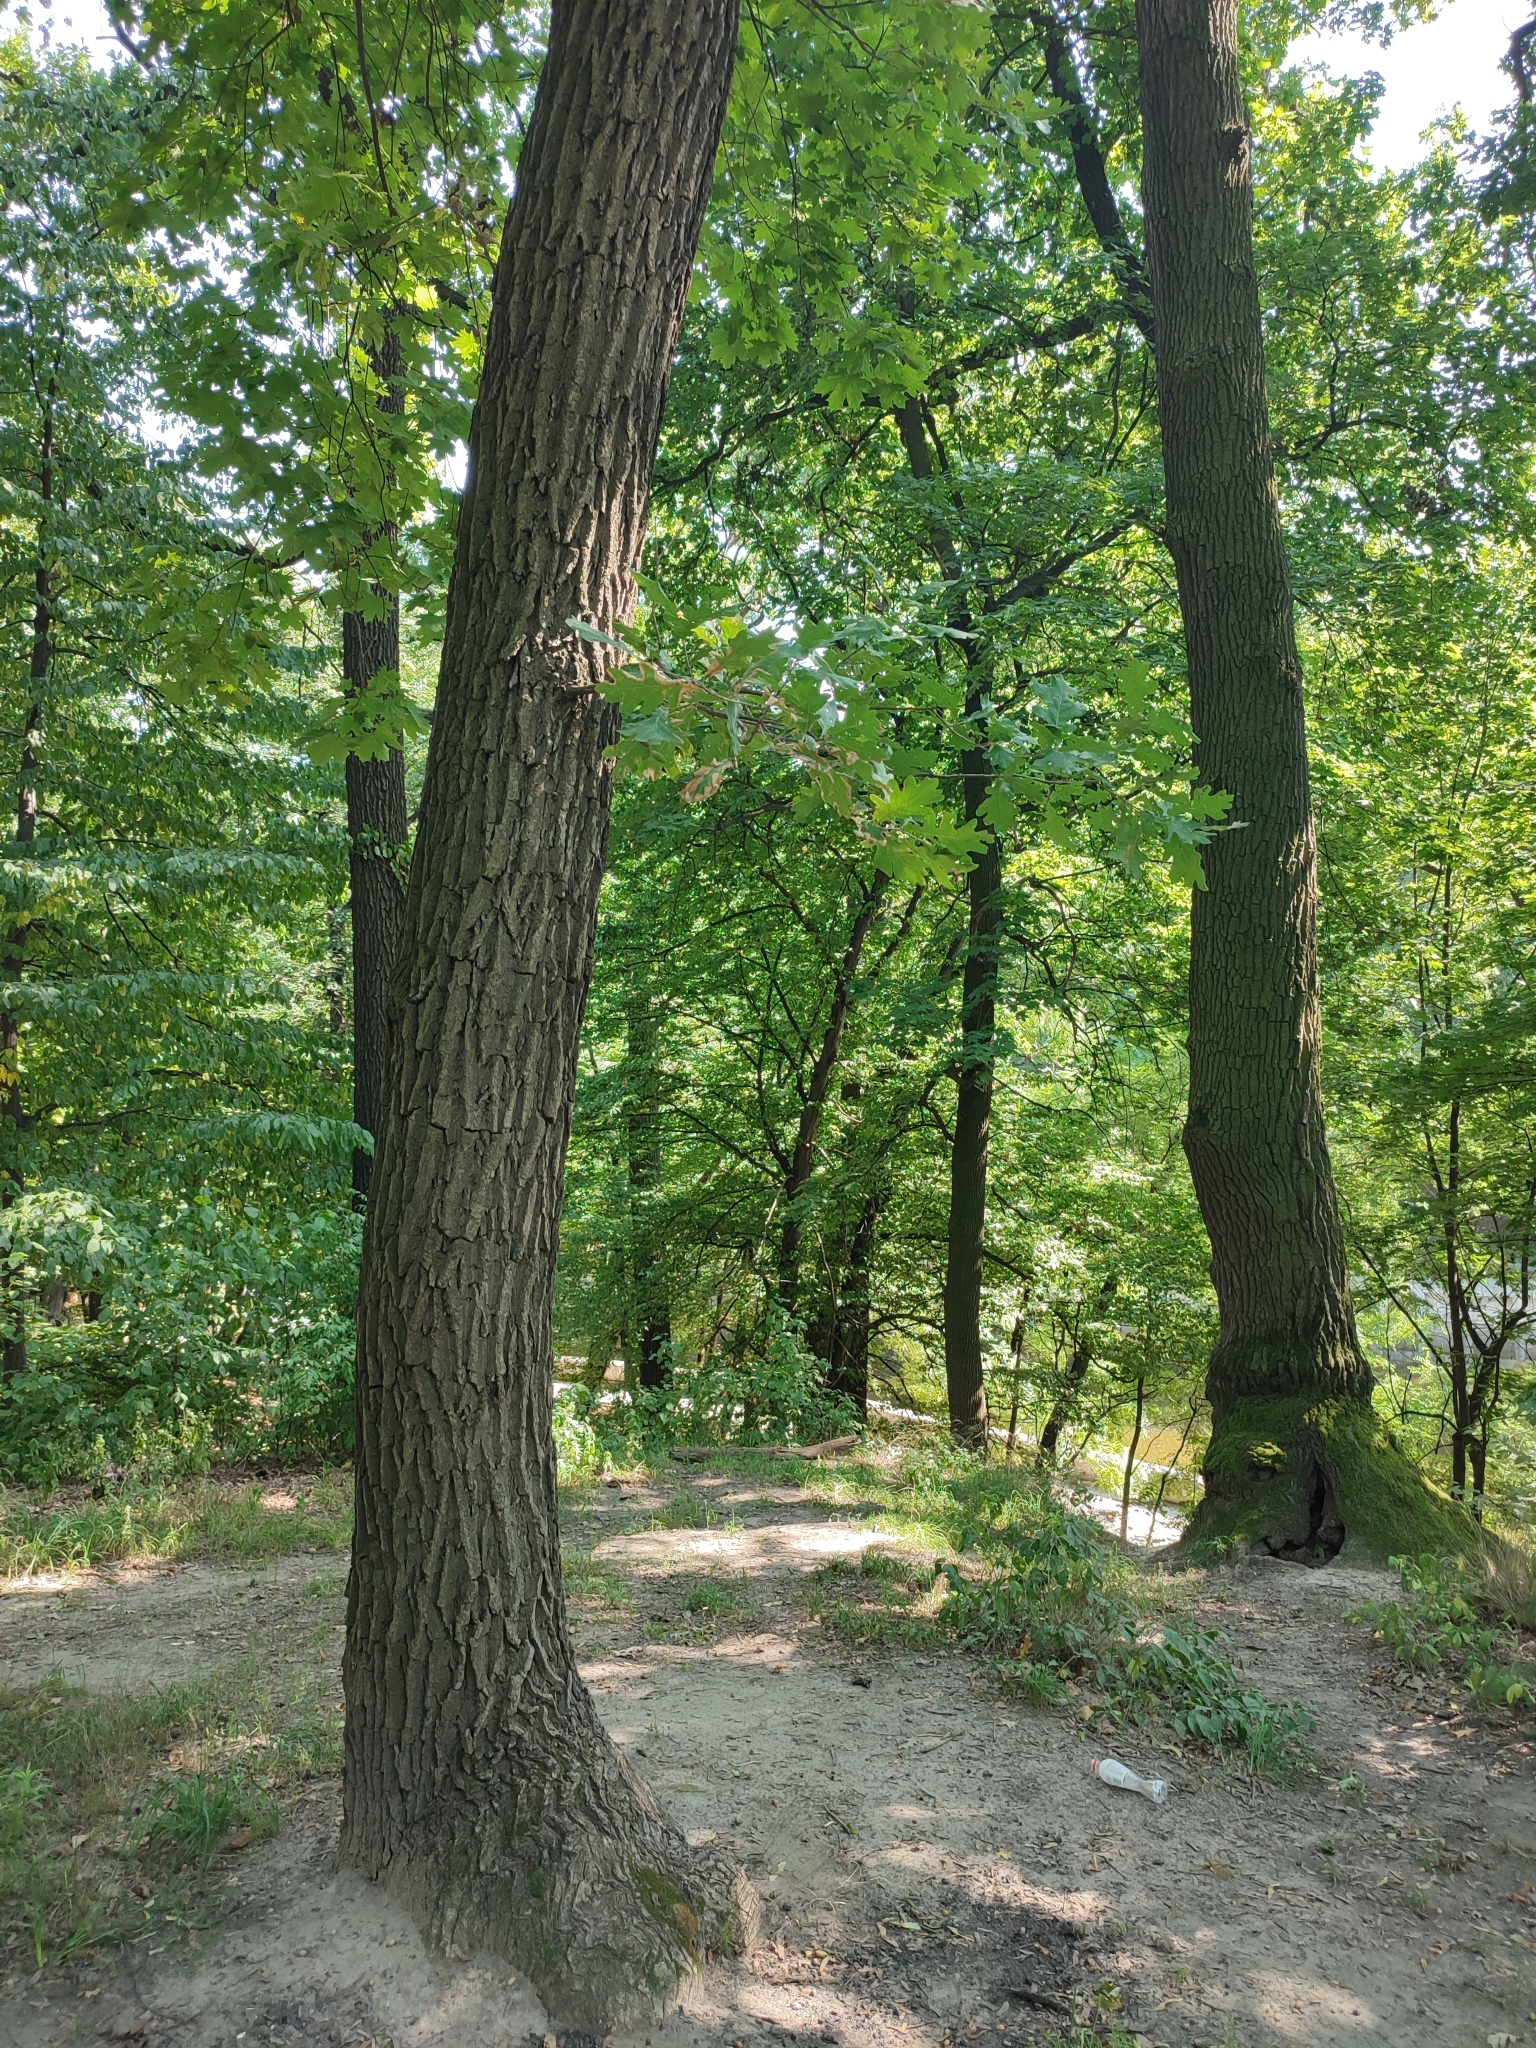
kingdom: Plantae
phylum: Tracheophyta
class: Magnoliopsida
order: Fagales
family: Fagaceae
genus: Quercus
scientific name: Quercus robur
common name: Pedunculate oak
